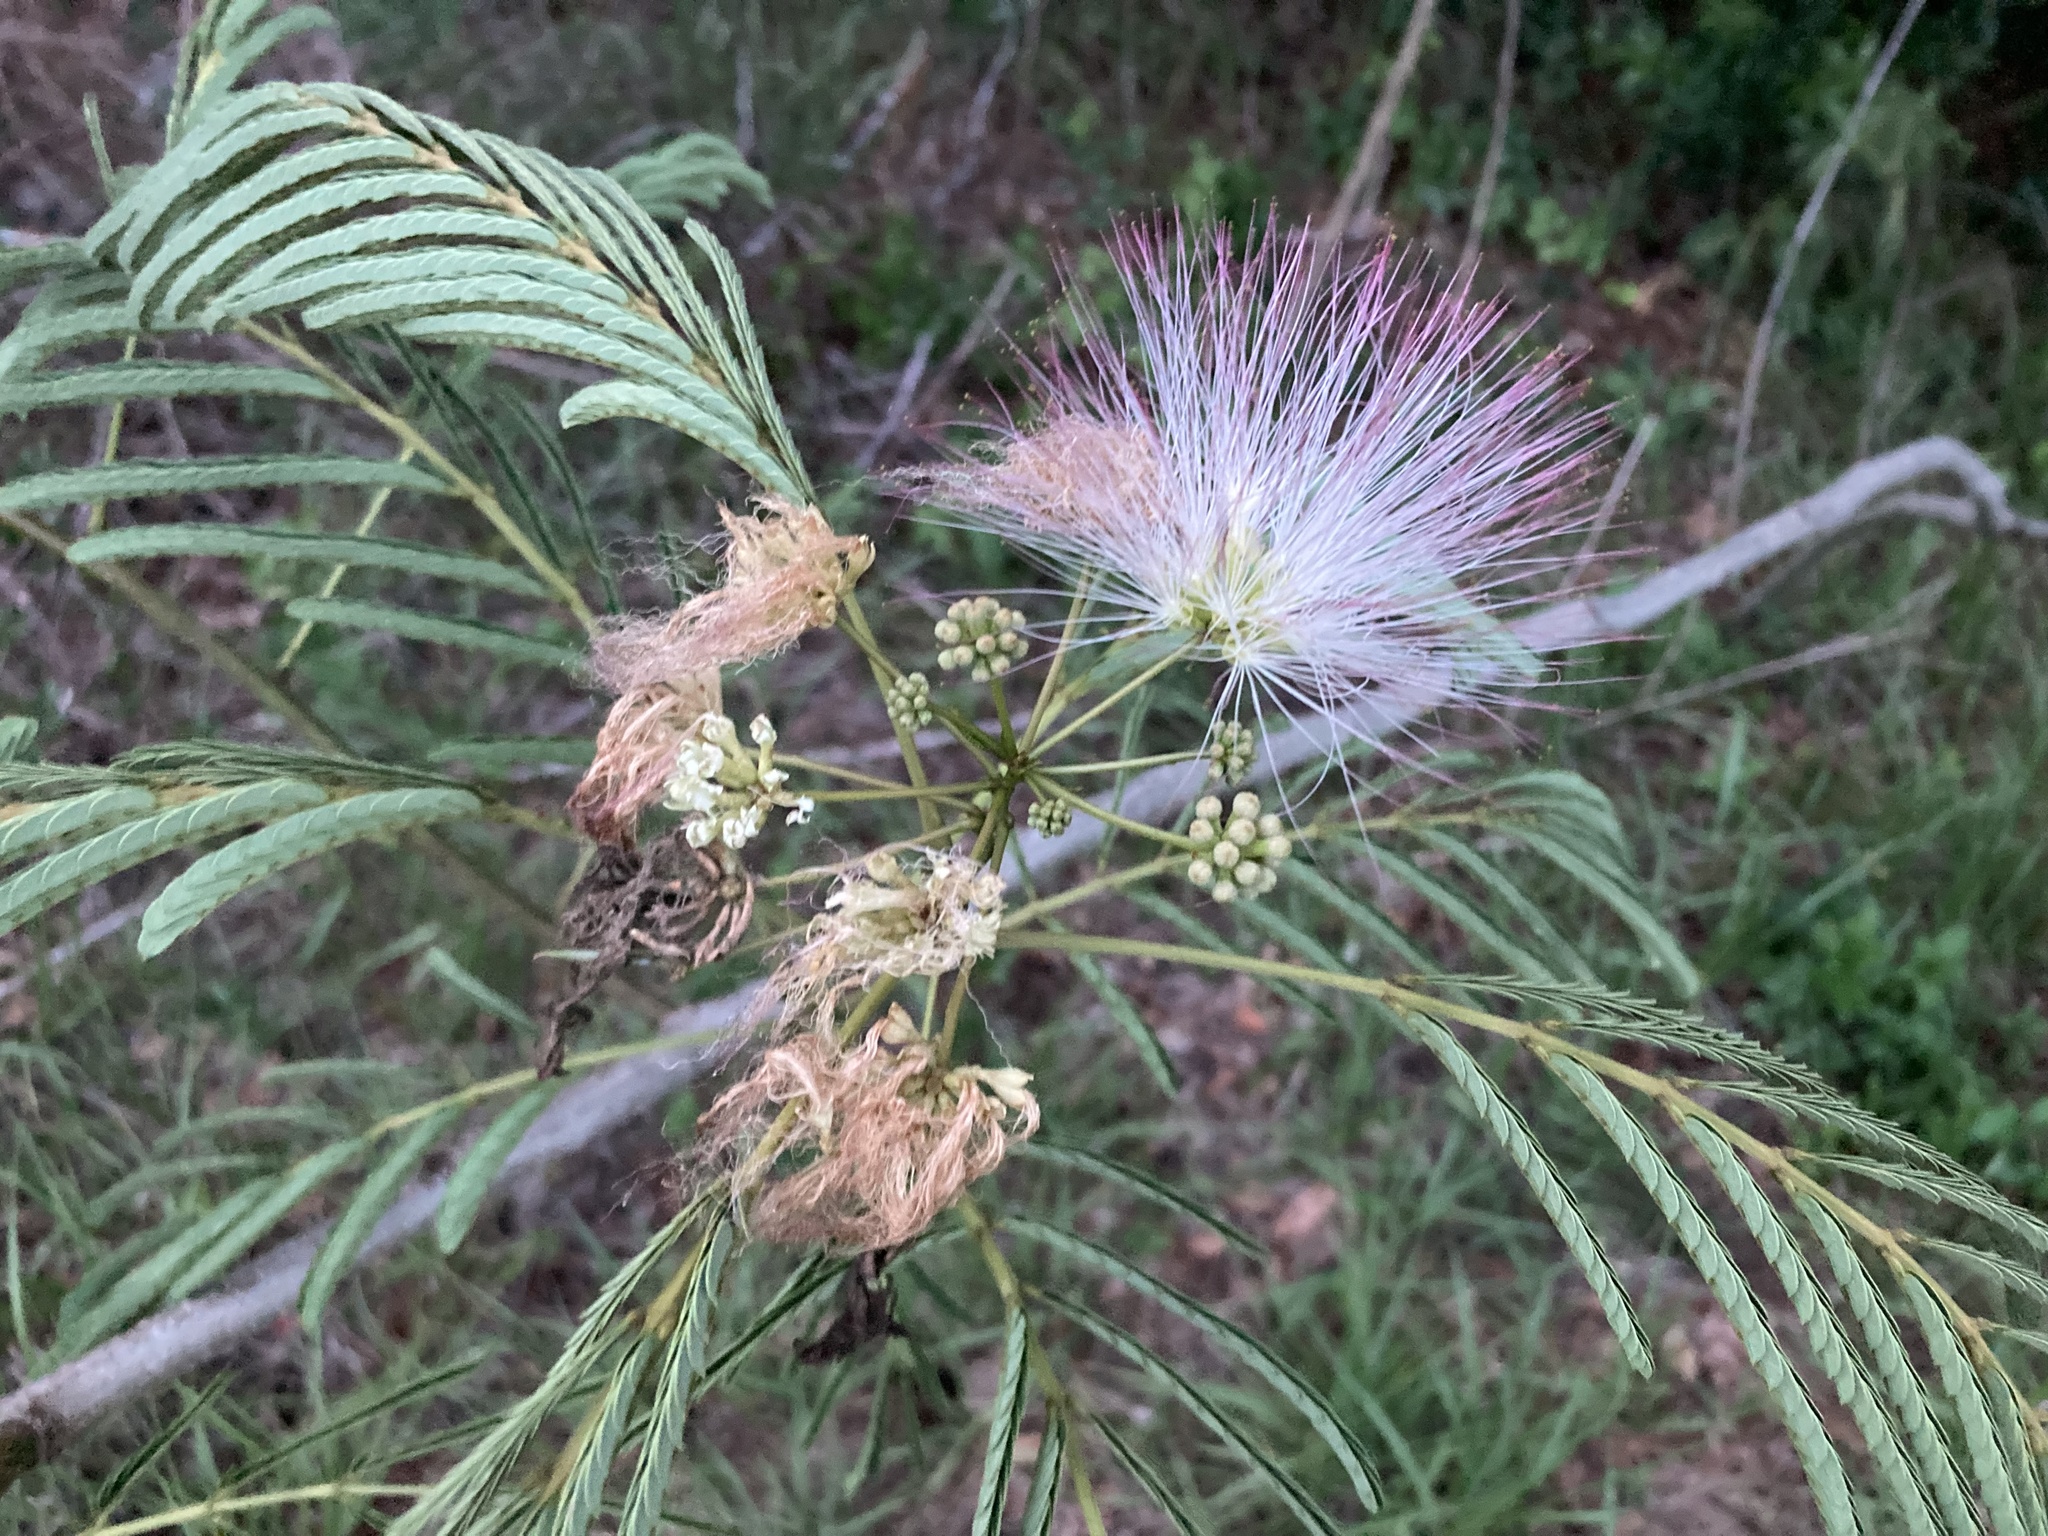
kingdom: Plantae
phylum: Tracheophyta
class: Magnoliopsida
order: Fabales
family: Fabaceae
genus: Albizia
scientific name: Albizia julibrissin
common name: Silktree
